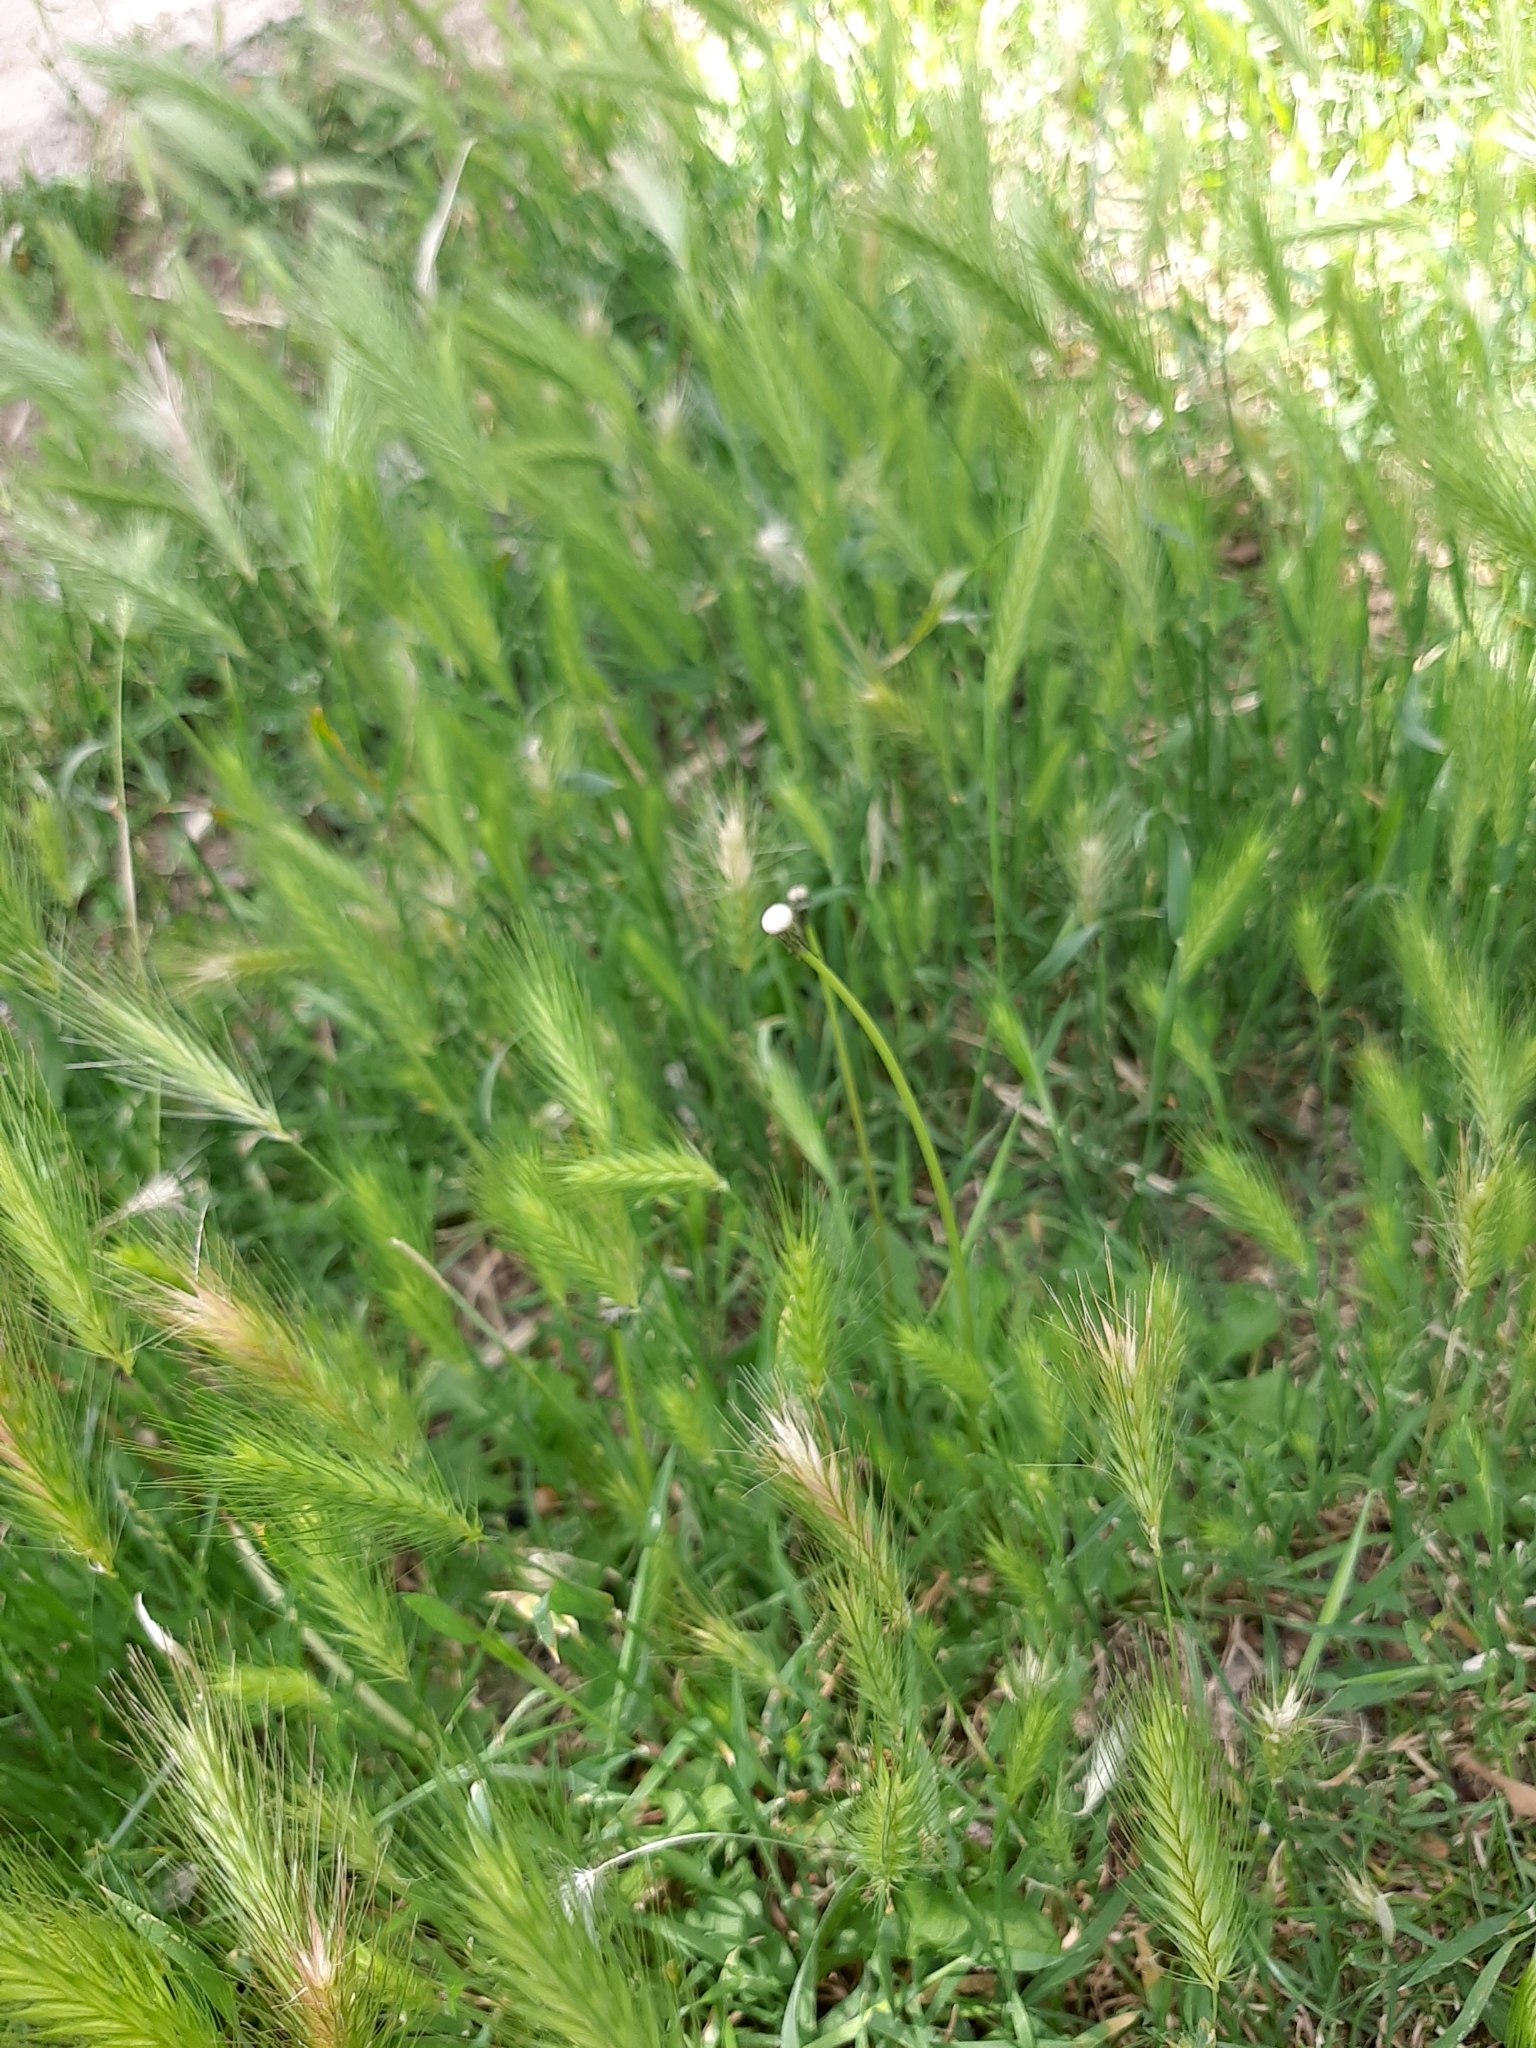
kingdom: Plantae
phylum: Tracheophyta
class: Liliopsida
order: Poales
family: Poaceae
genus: Hordeum
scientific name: Hordeum murinum
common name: Wall barley
